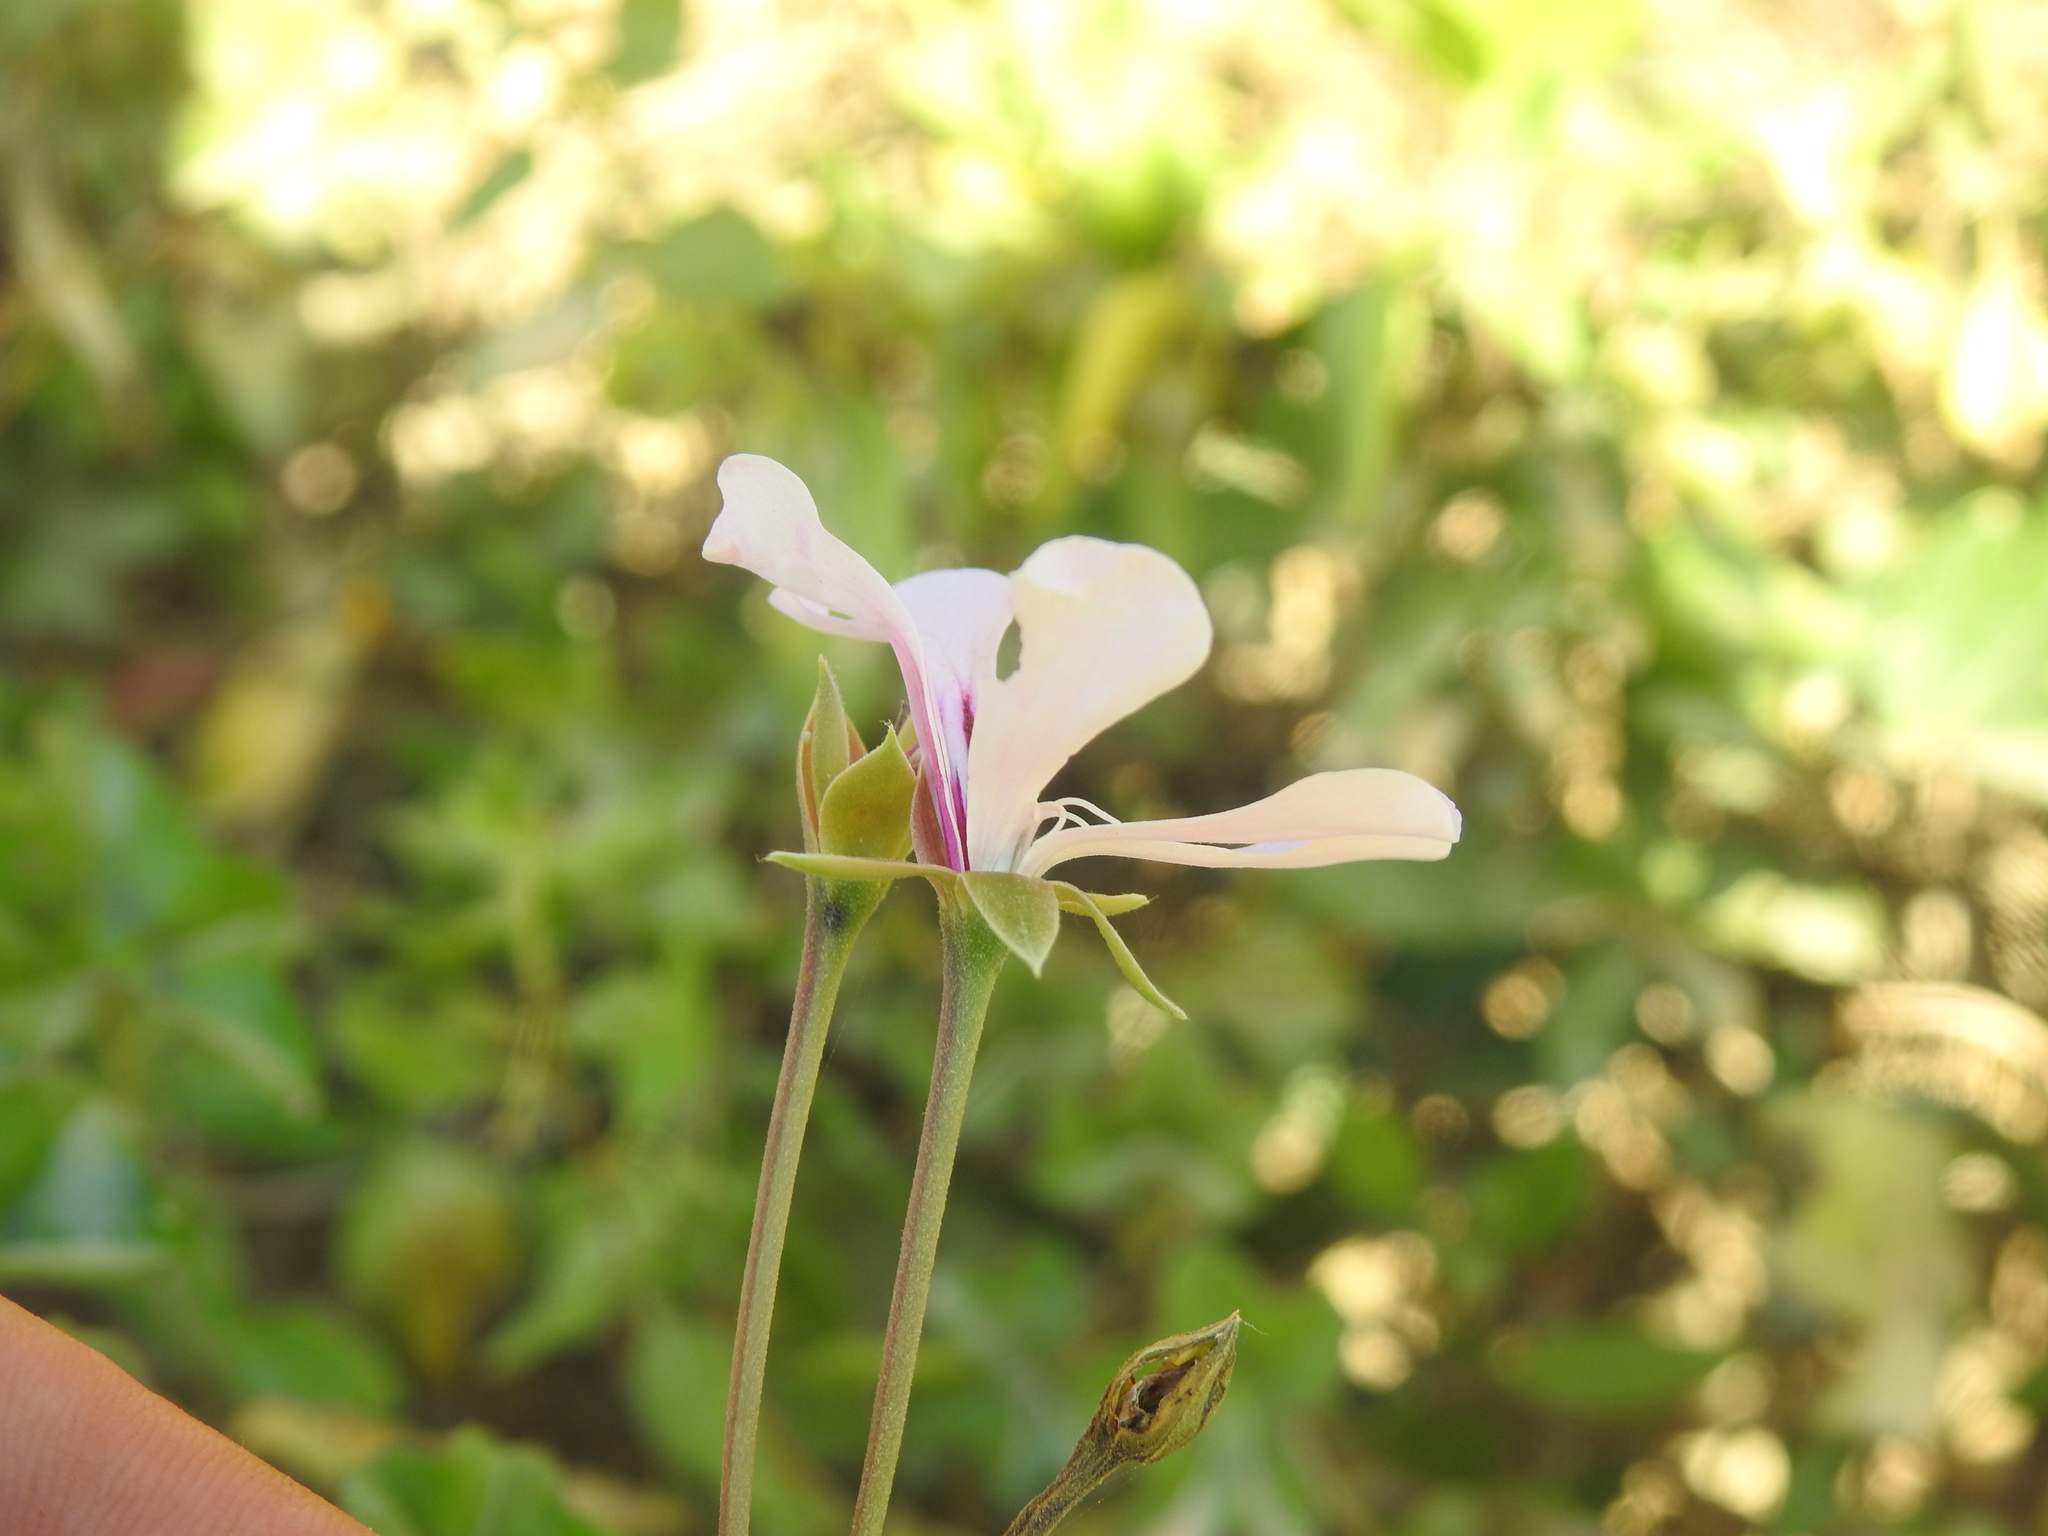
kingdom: Plantae
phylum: Tracheophyta
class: Magnoliopsida
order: Geraniales
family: Geraniaceae
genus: Pelargonium
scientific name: Pelargonium peltatum
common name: Ivyleaf geranium
